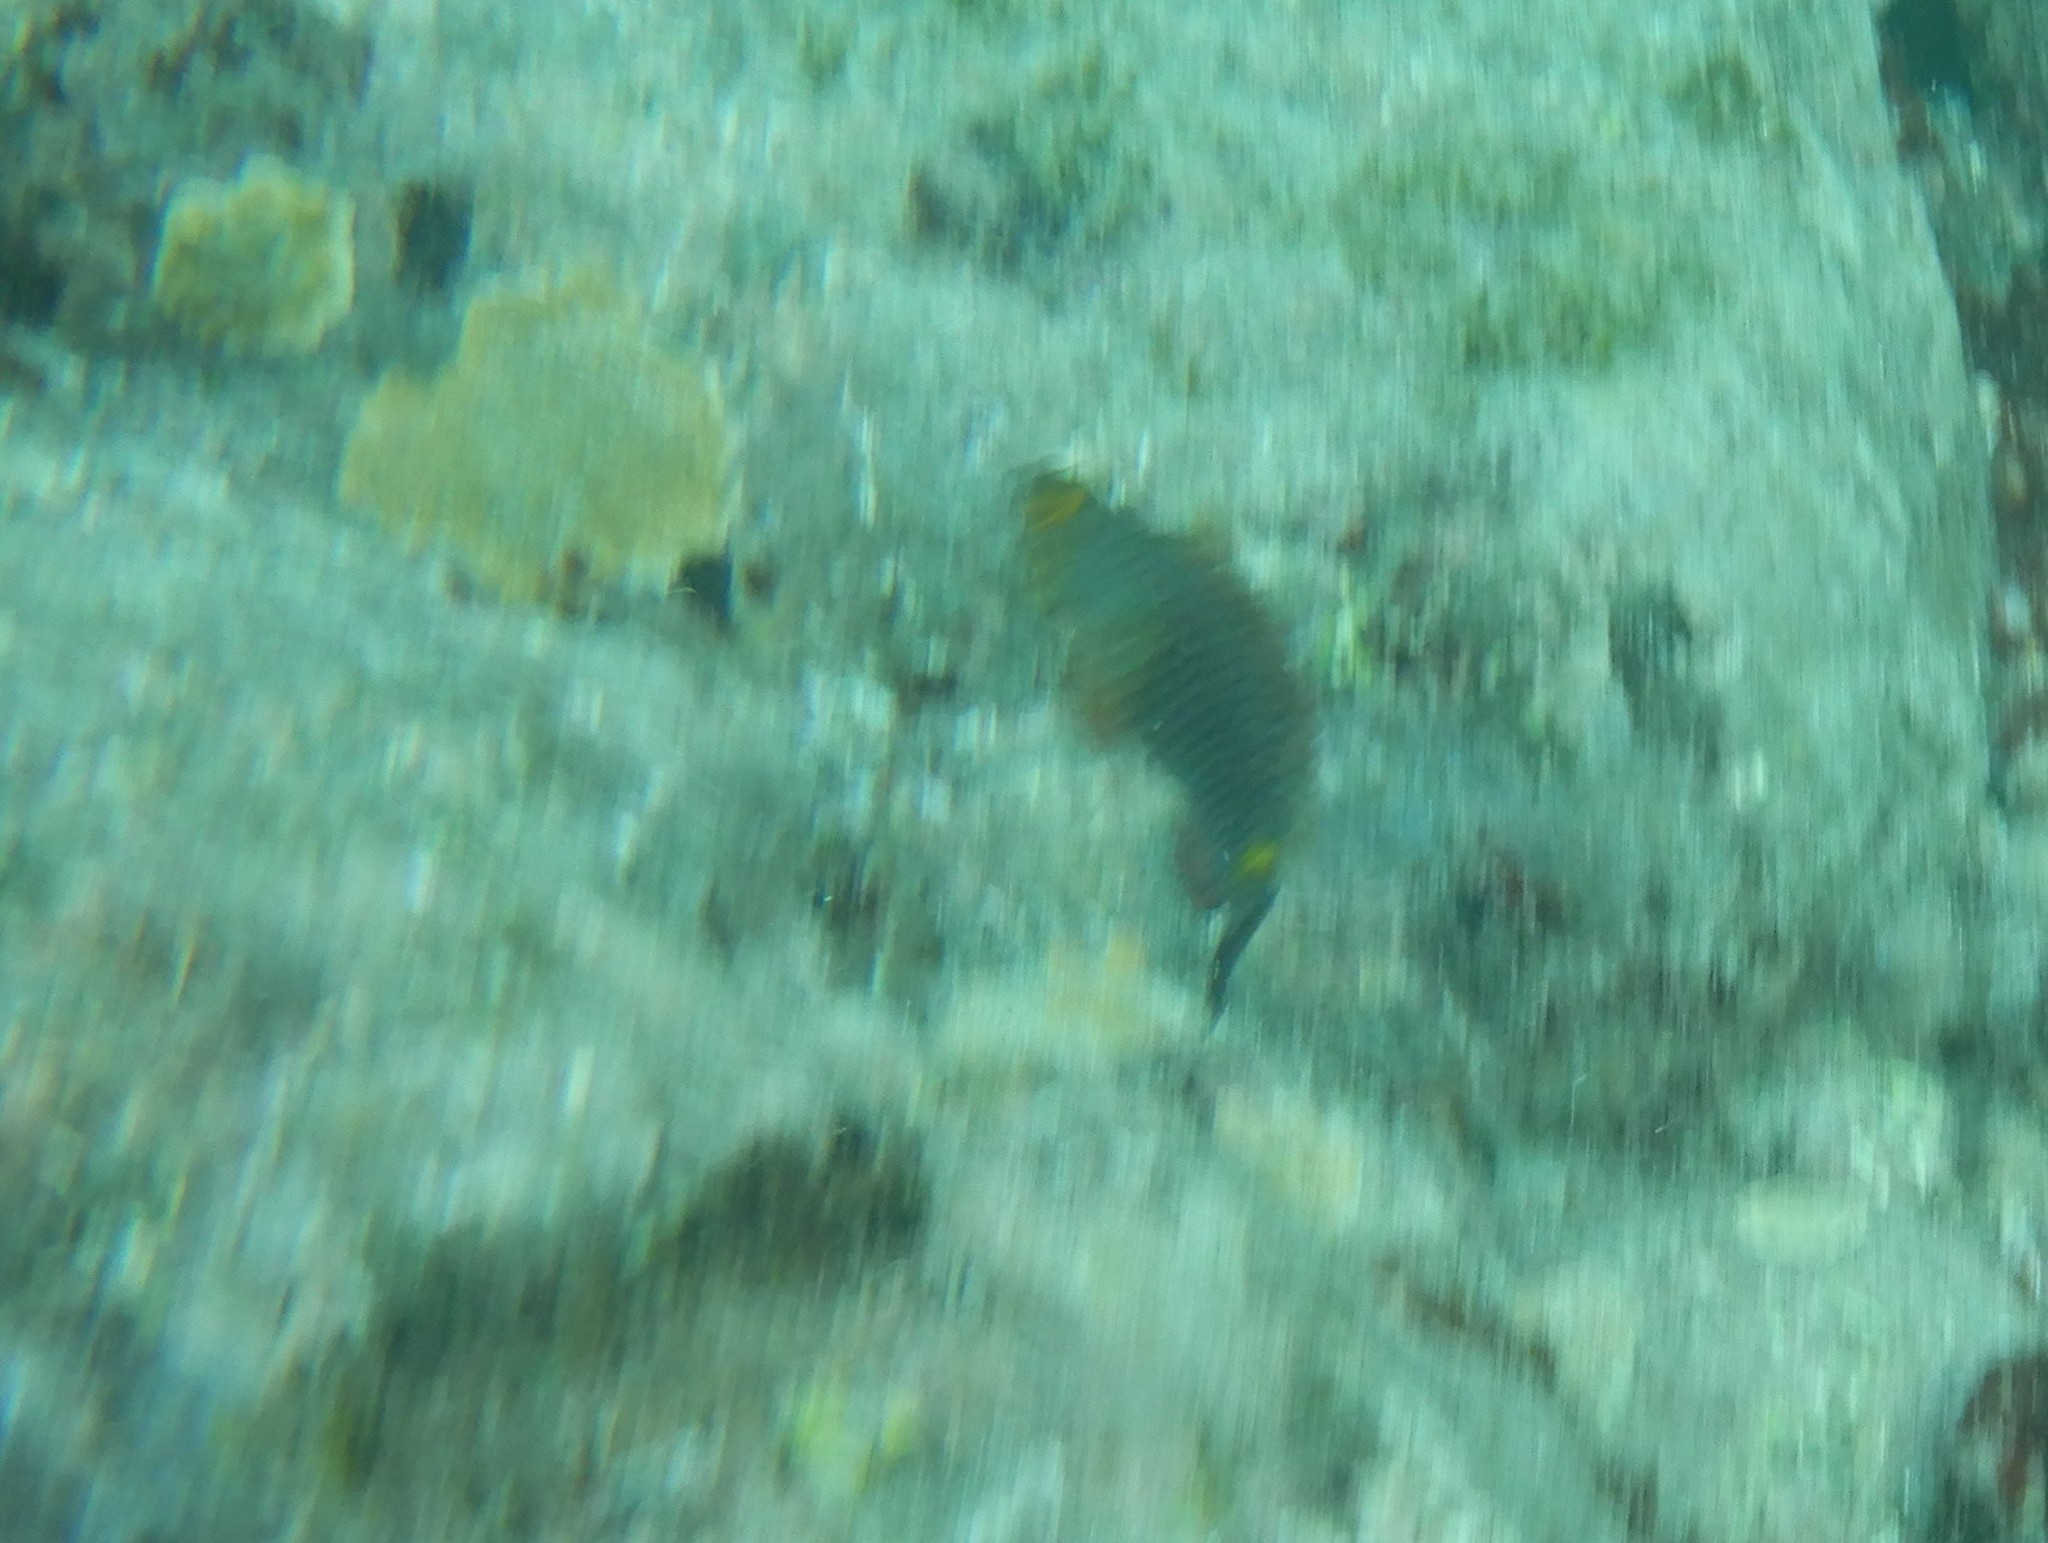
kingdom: Animalia
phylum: Chordata
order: Perciformes
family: Scaridae
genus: Sparisoma
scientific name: Sparisoma cretense
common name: Parrotfish
